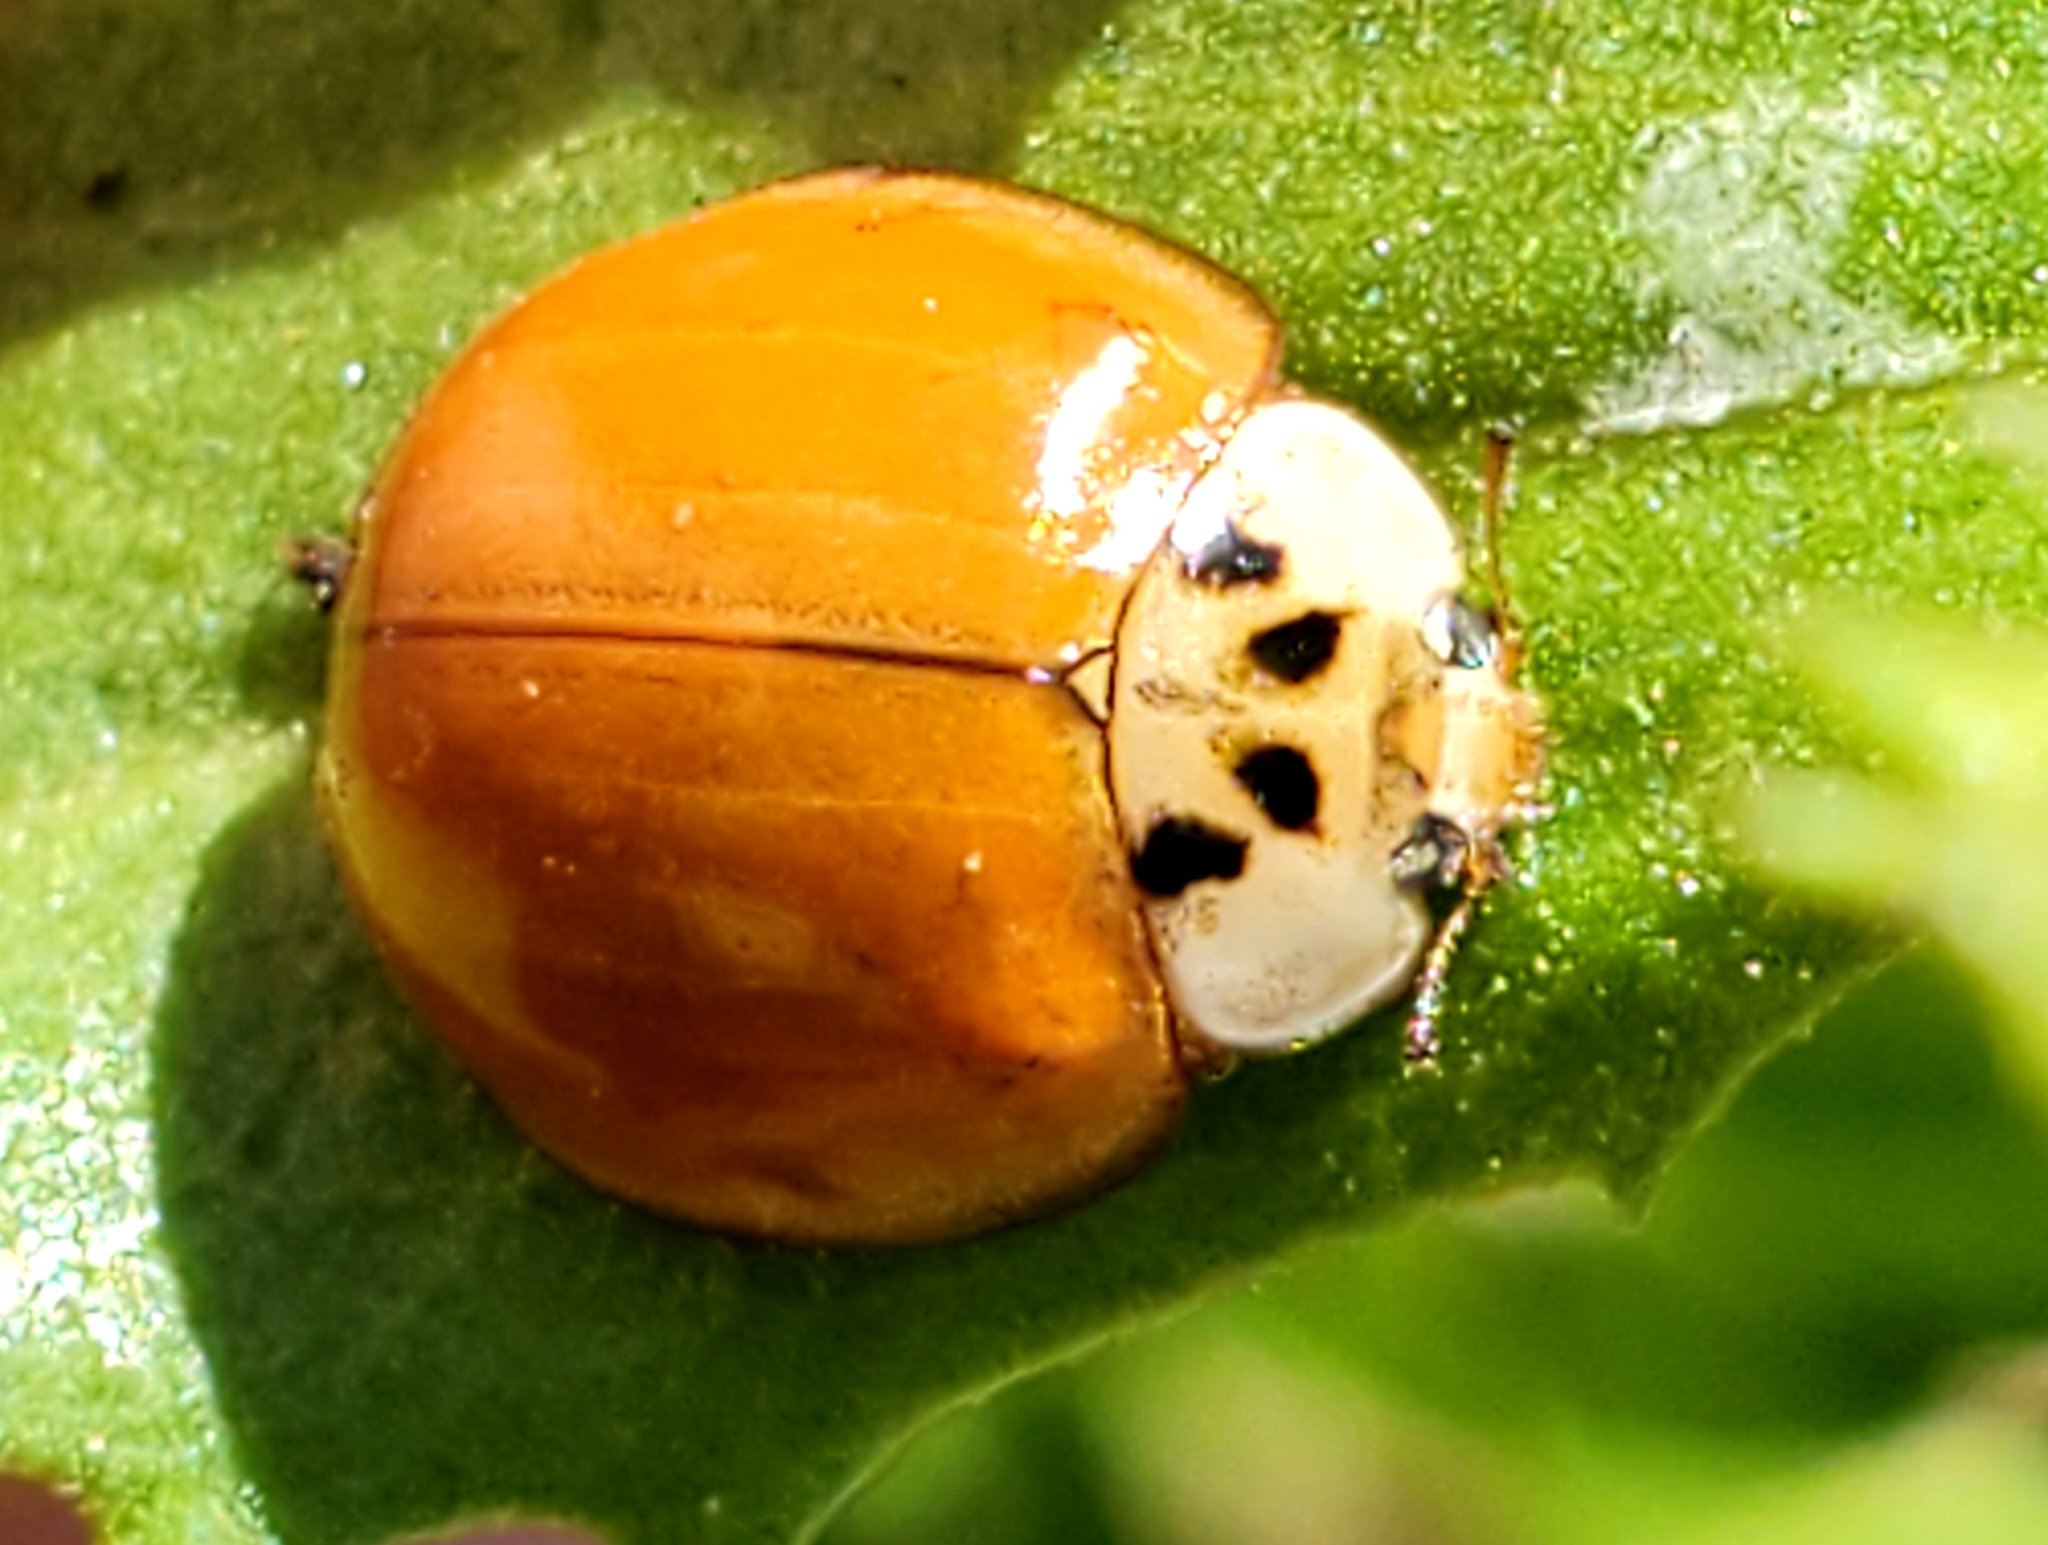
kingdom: Animalia
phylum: Arthropoda
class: Insecta
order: Coleoptera
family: Coccinellidae
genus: Harmonia
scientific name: Harmonia axyridis
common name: Harlequin ladybird
